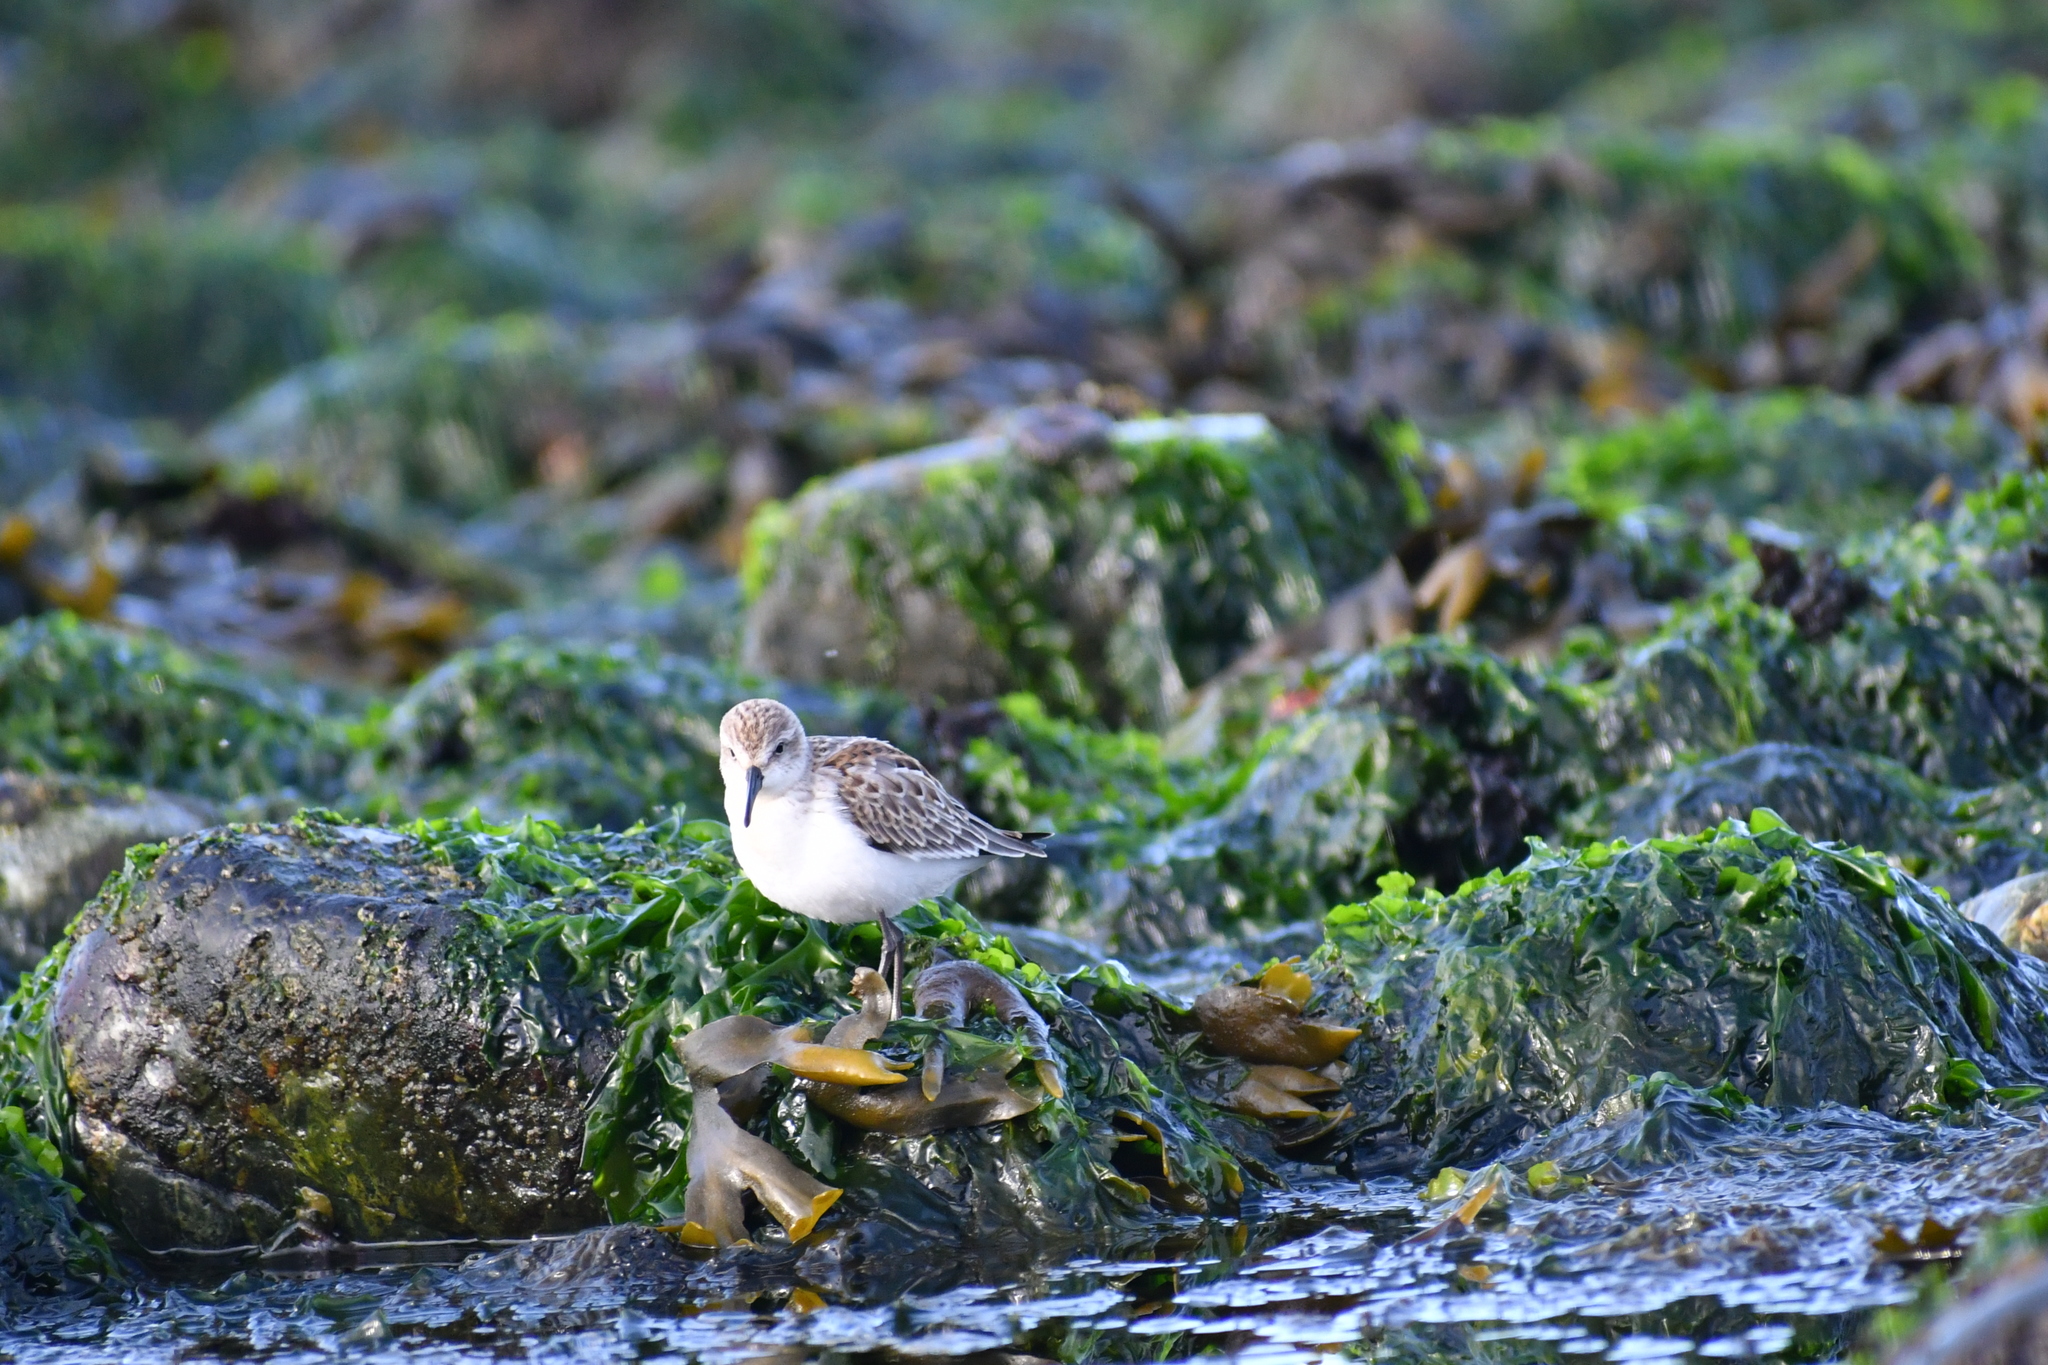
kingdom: Animalia
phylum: Chordata
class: Aves
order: Charadriiformes
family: Scolopacidae
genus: Calidris
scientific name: Calidris mauri
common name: Western sandpiper
